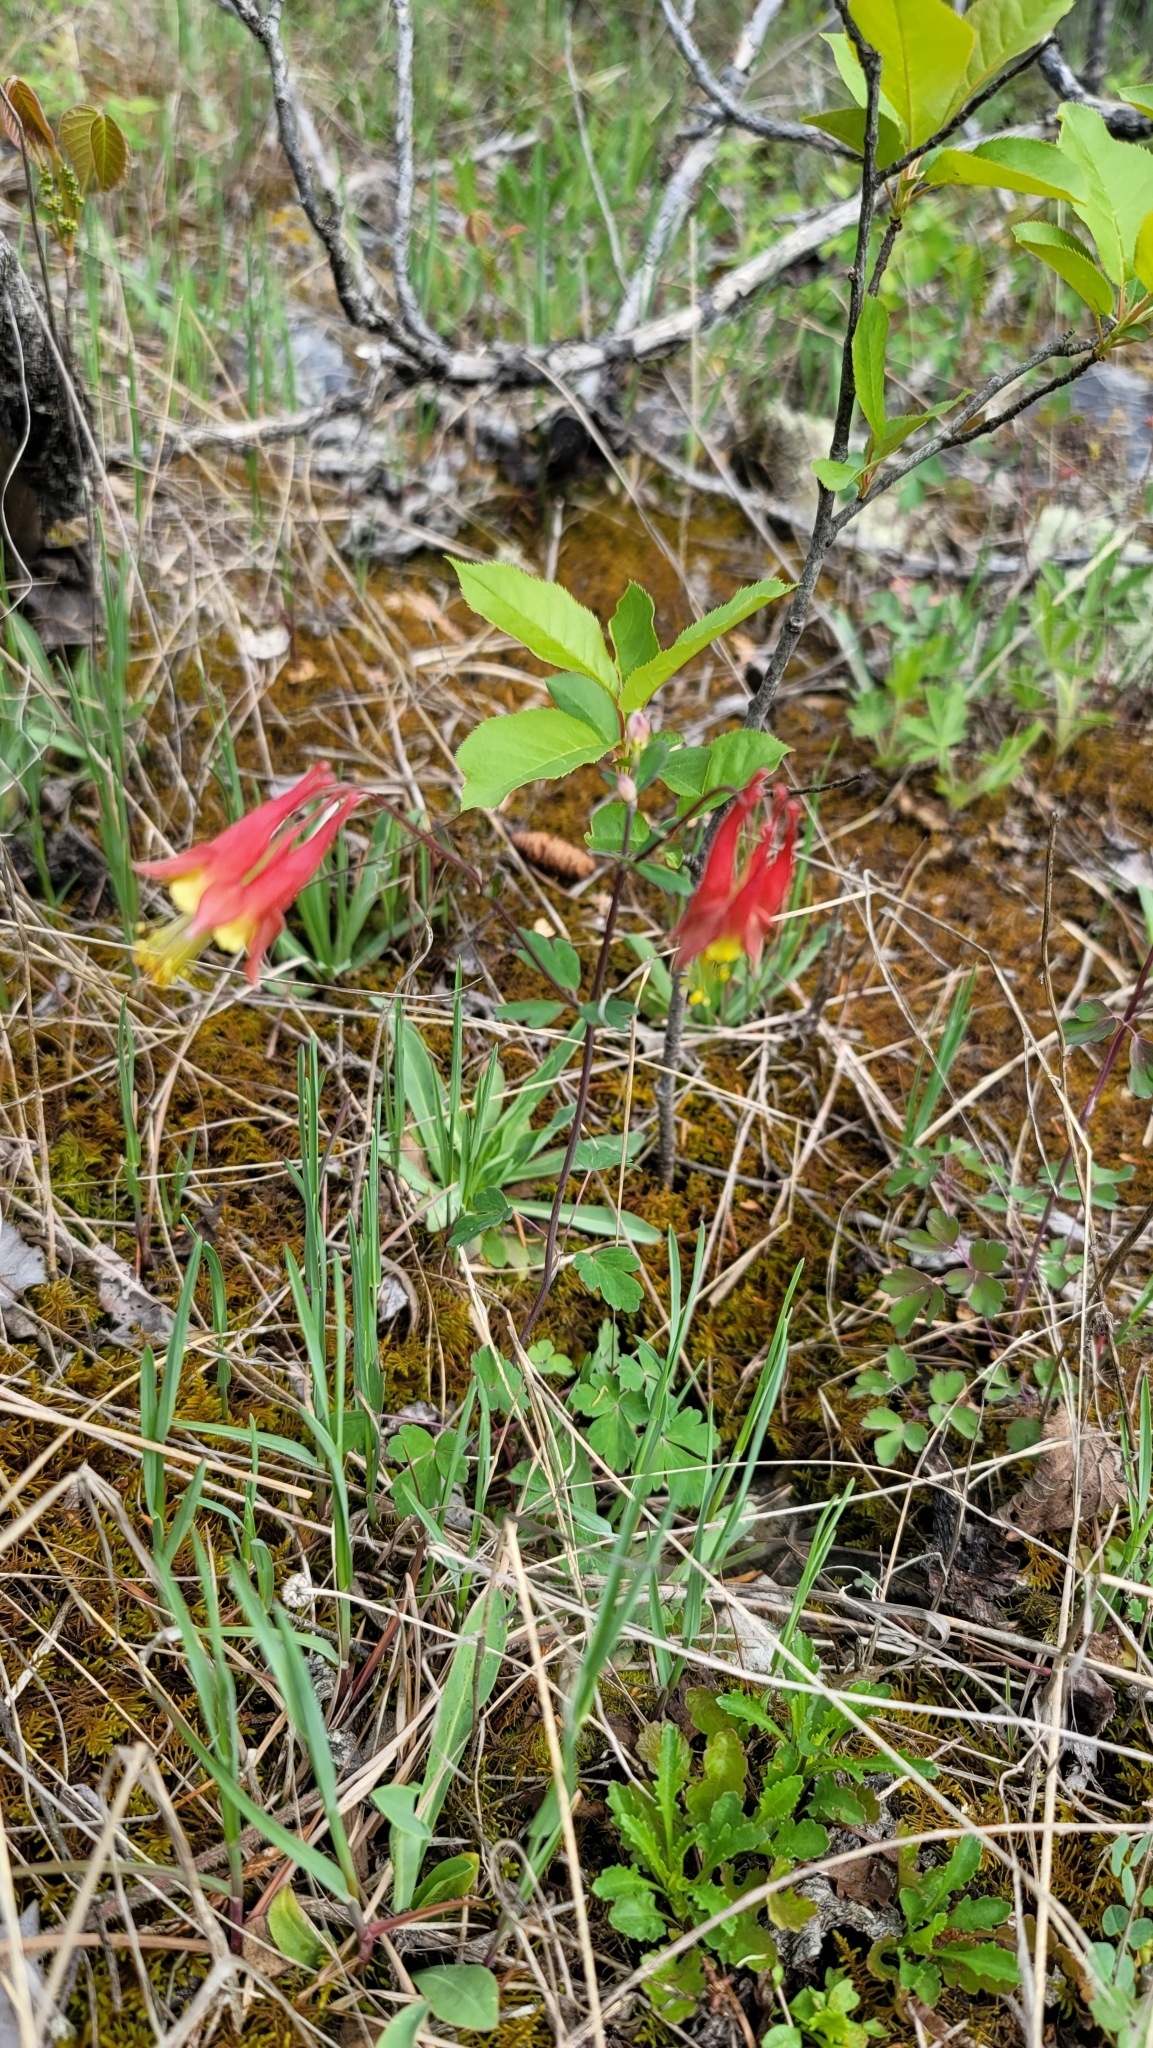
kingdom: Plantae
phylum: Tracheophyta
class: Magnoliopsida
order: Ranunculales
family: Ranunculaceae
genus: Aquilegia
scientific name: Aquilegia canadensis
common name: American columbine
